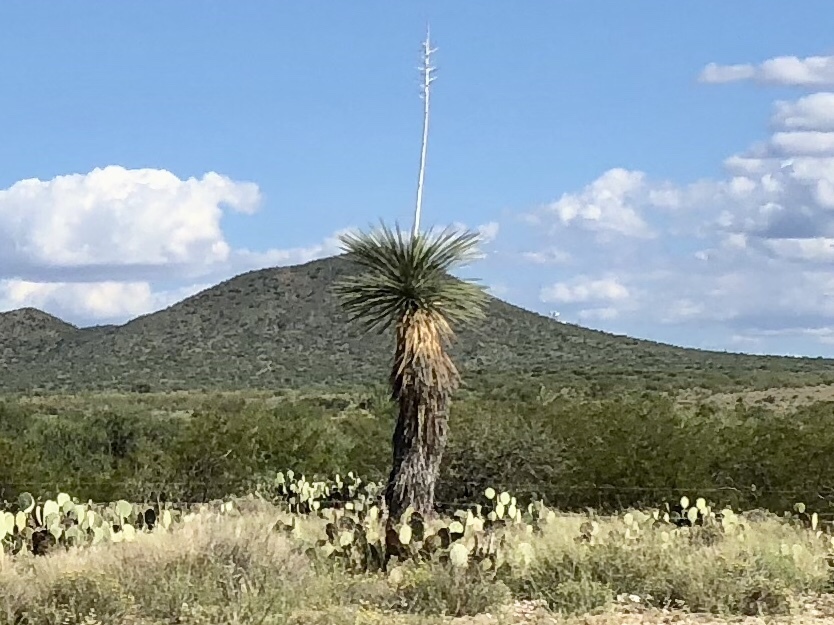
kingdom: Plantae
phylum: Tracheophyta
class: Liliopsida
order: Asparagales
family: Asparagaceae
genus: Yucca
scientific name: Yucca elata
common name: Palmella
